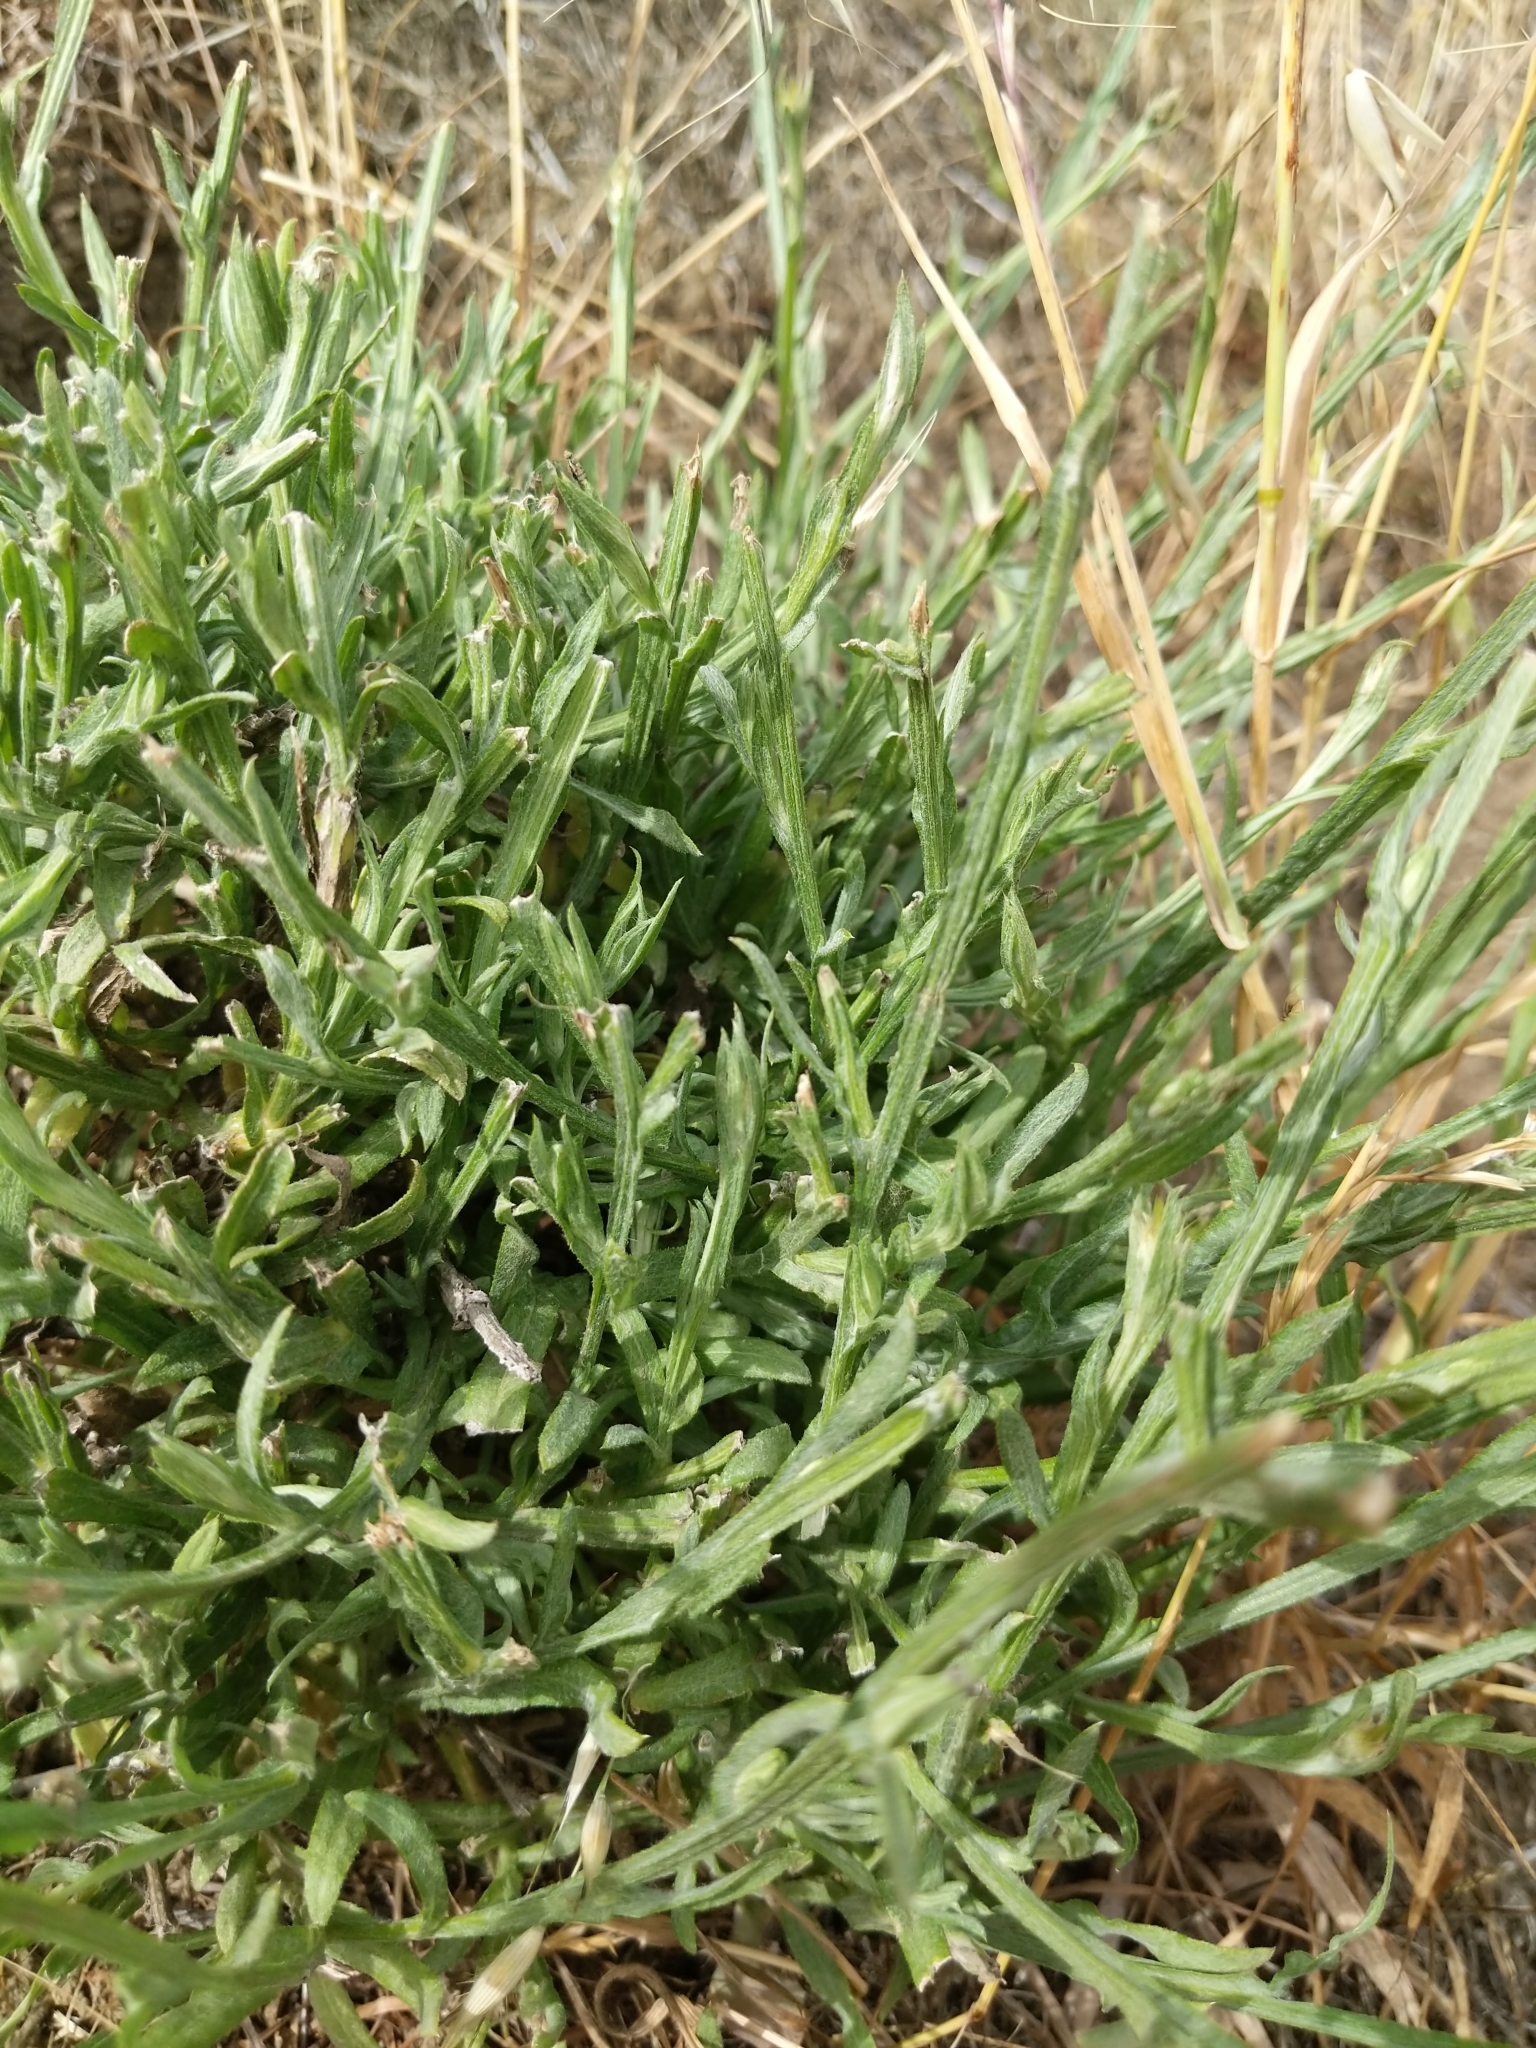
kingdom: Plantae
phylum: Tracheophyta
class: Magnoliopsida
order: Asterales
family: Asteraceae
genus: Centaurea
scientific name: Centaurea solstitialis
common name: Yellow star-thistle
